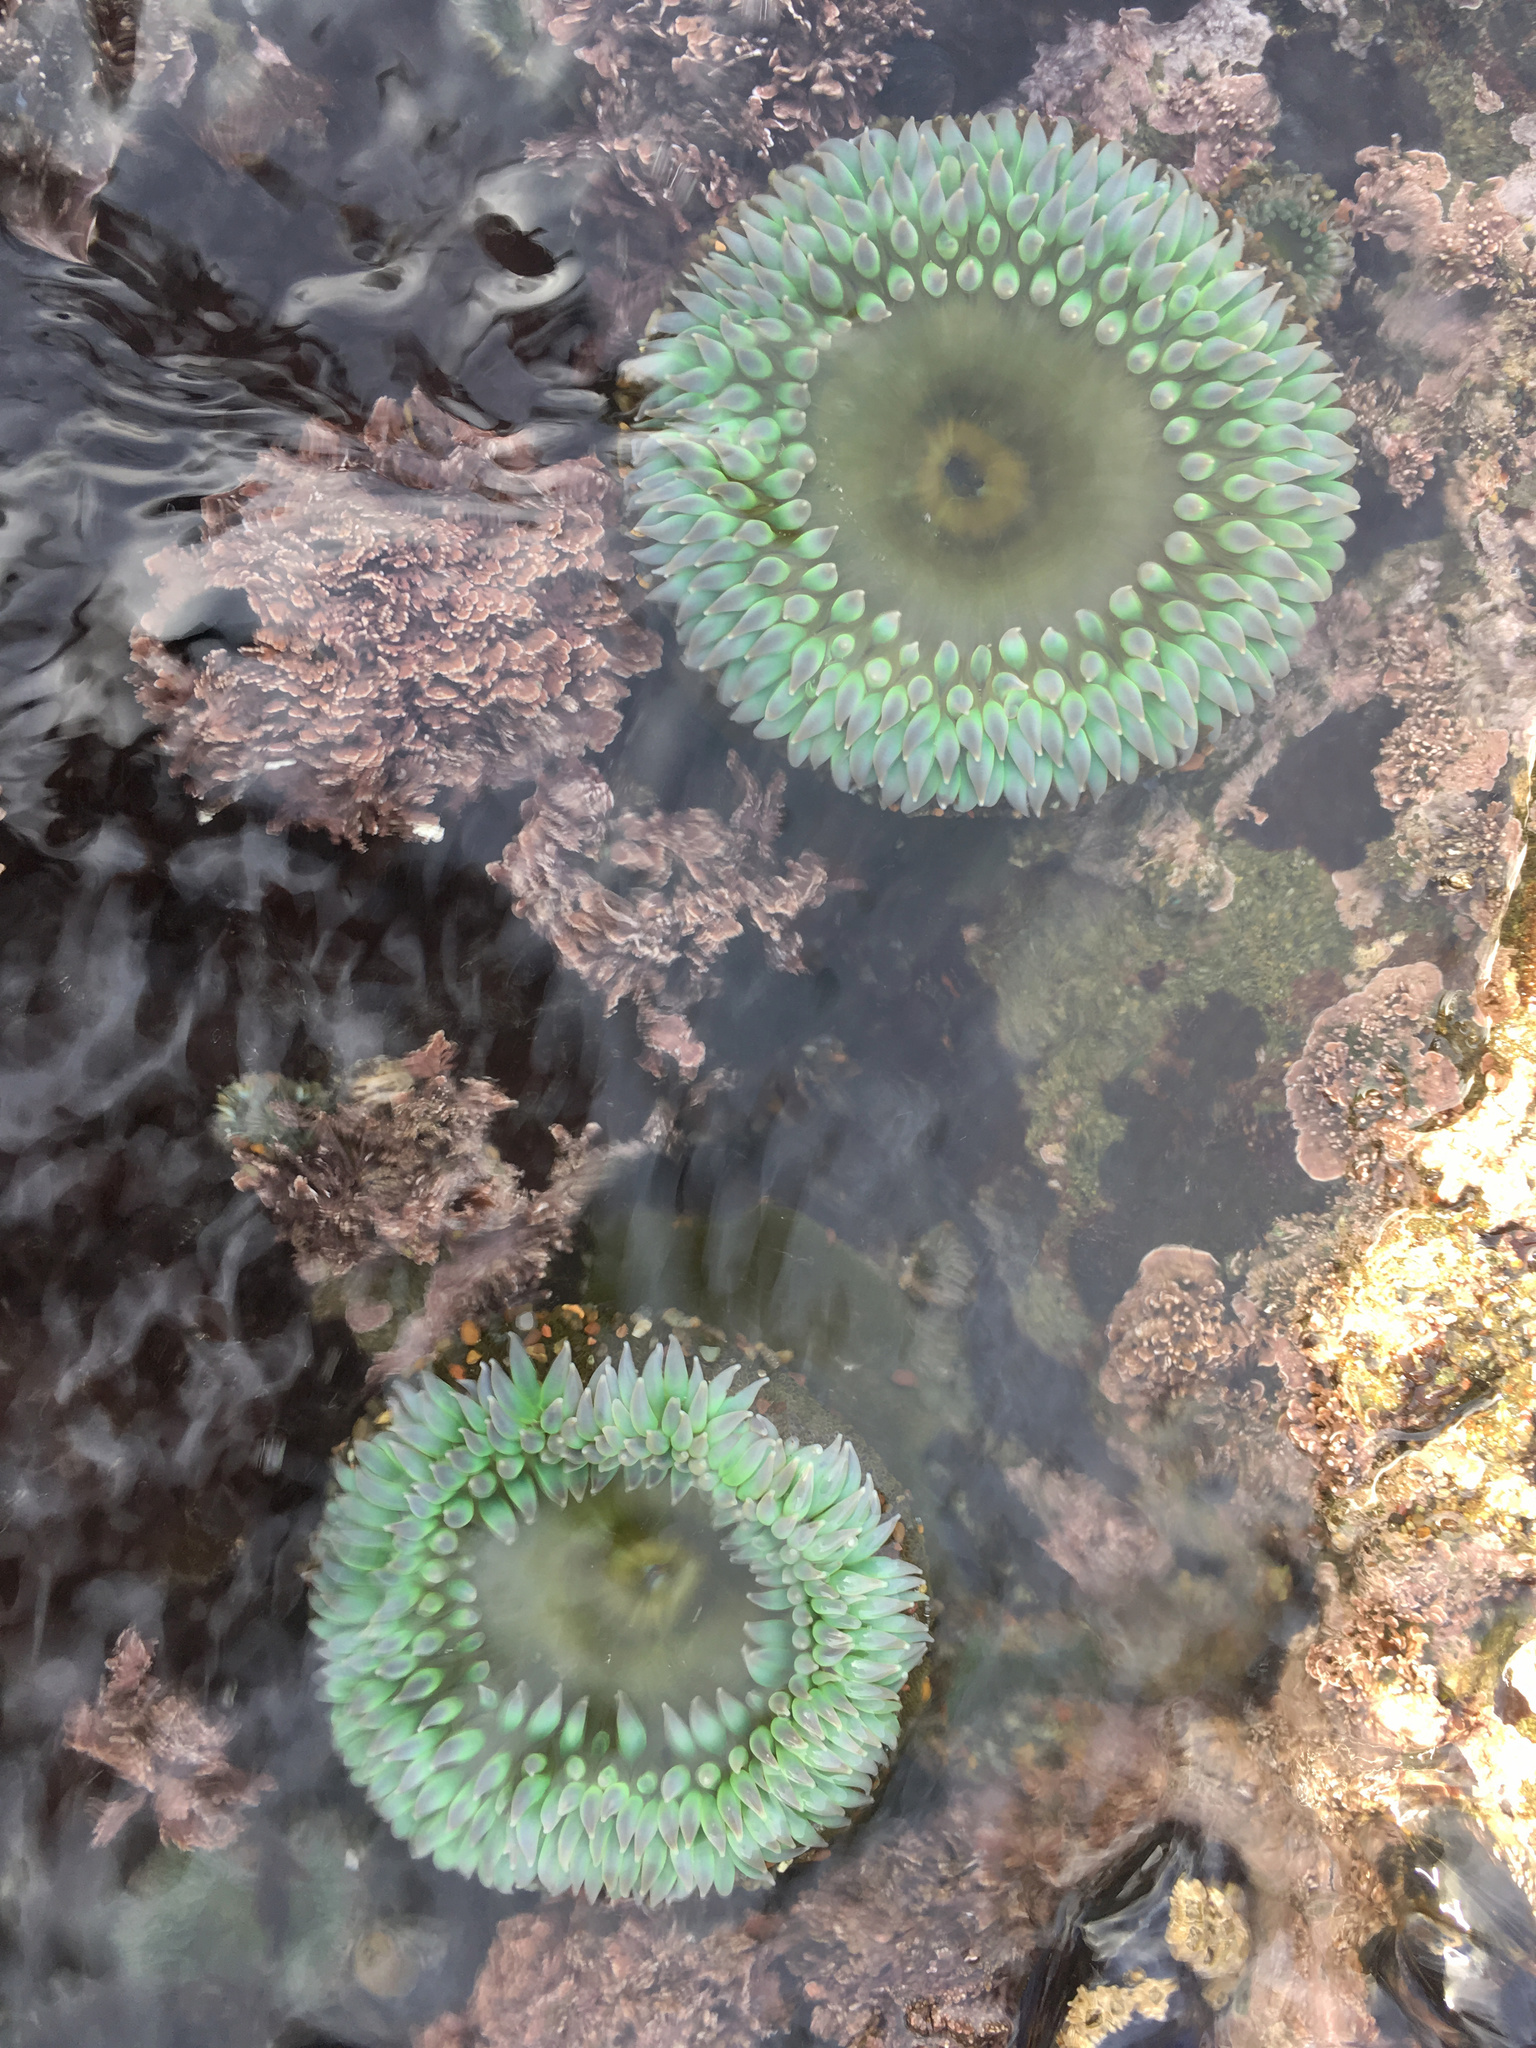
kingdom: Animalia
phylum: Cnidaria
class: Anthozoa
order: Actiniaria
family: Actiniidae
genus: Anthopleura
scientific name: Anthopleura xanthogrammica
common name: Giant green anemone
